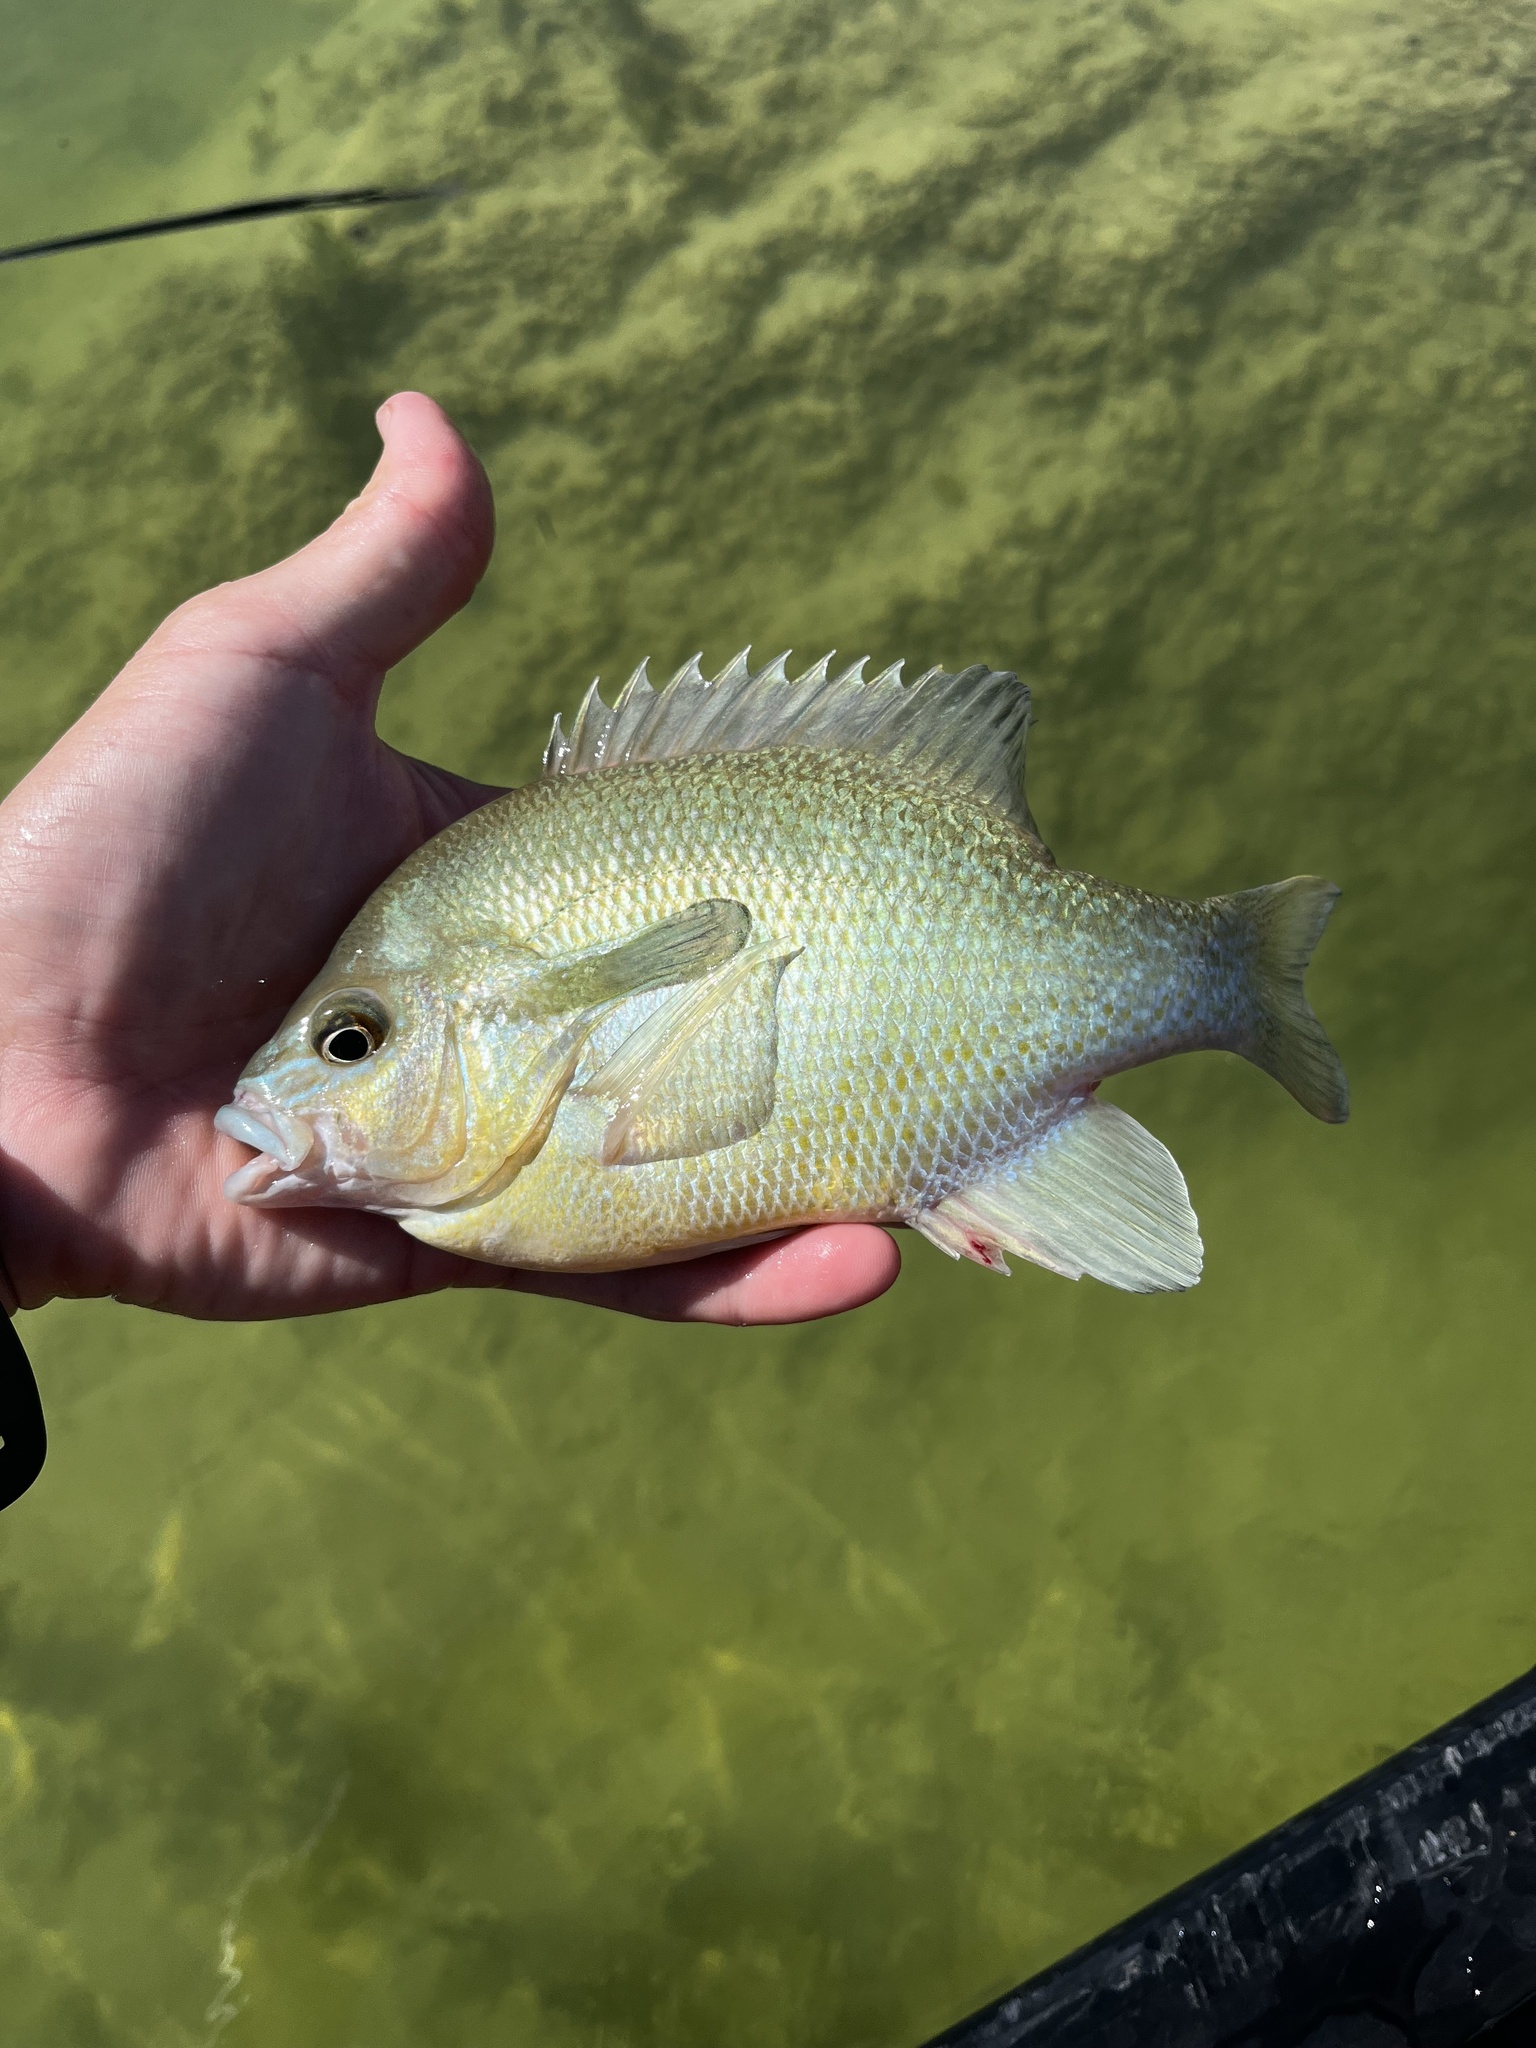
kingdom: Animalia
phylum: Chordata
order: Perciformes
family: Centrarchidae
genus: Lepomis
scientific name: Lepomis auritus
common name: Redbreast sunfish
